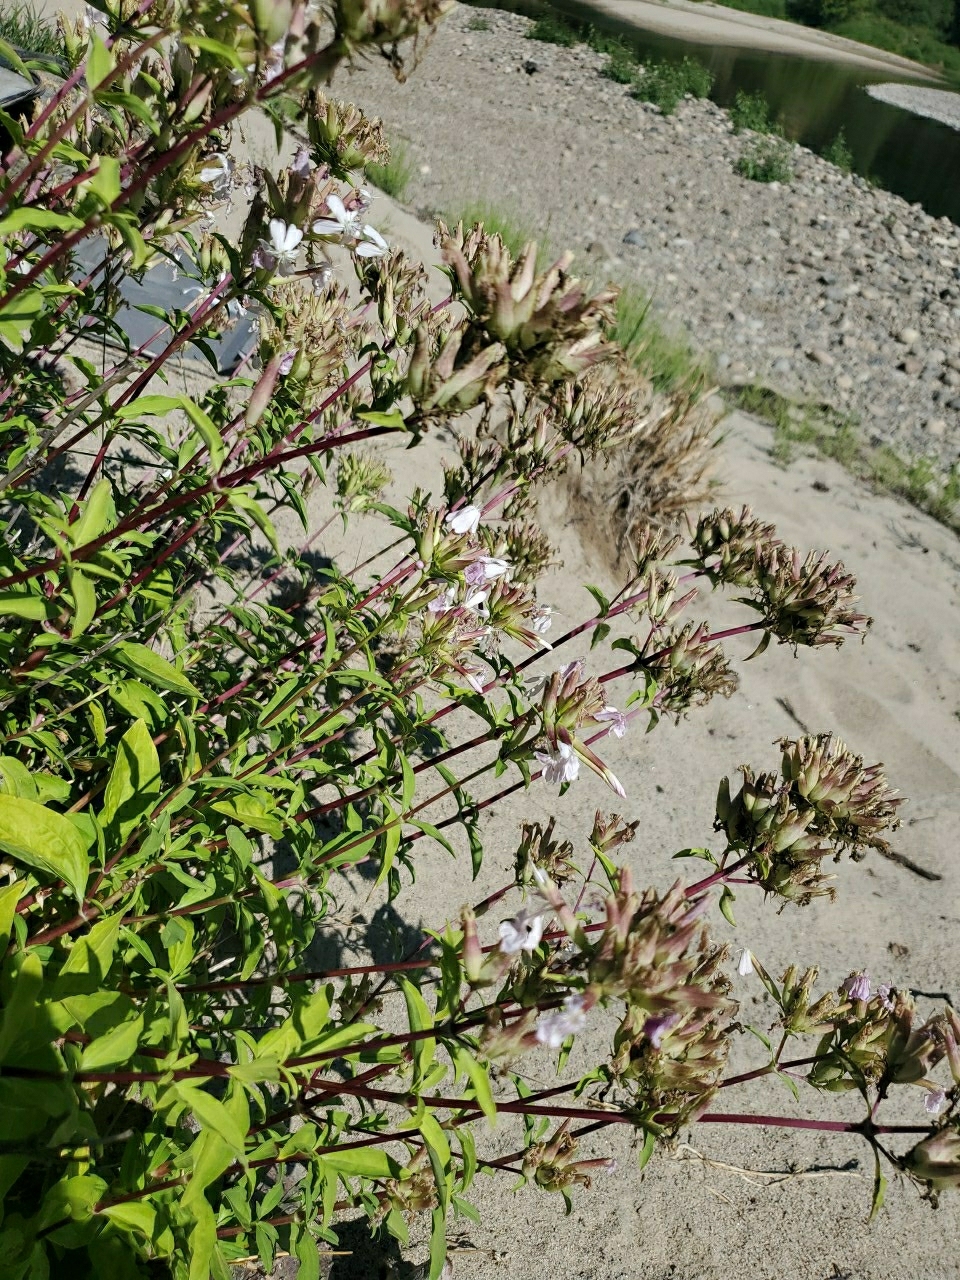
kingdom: Plantae
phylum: Tracheophyta
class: Magnoliopsida
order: Caryophyllales
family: Caryophyllaceae
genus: Saponaria
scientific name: Saponaria officinalis
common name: Soapwort
